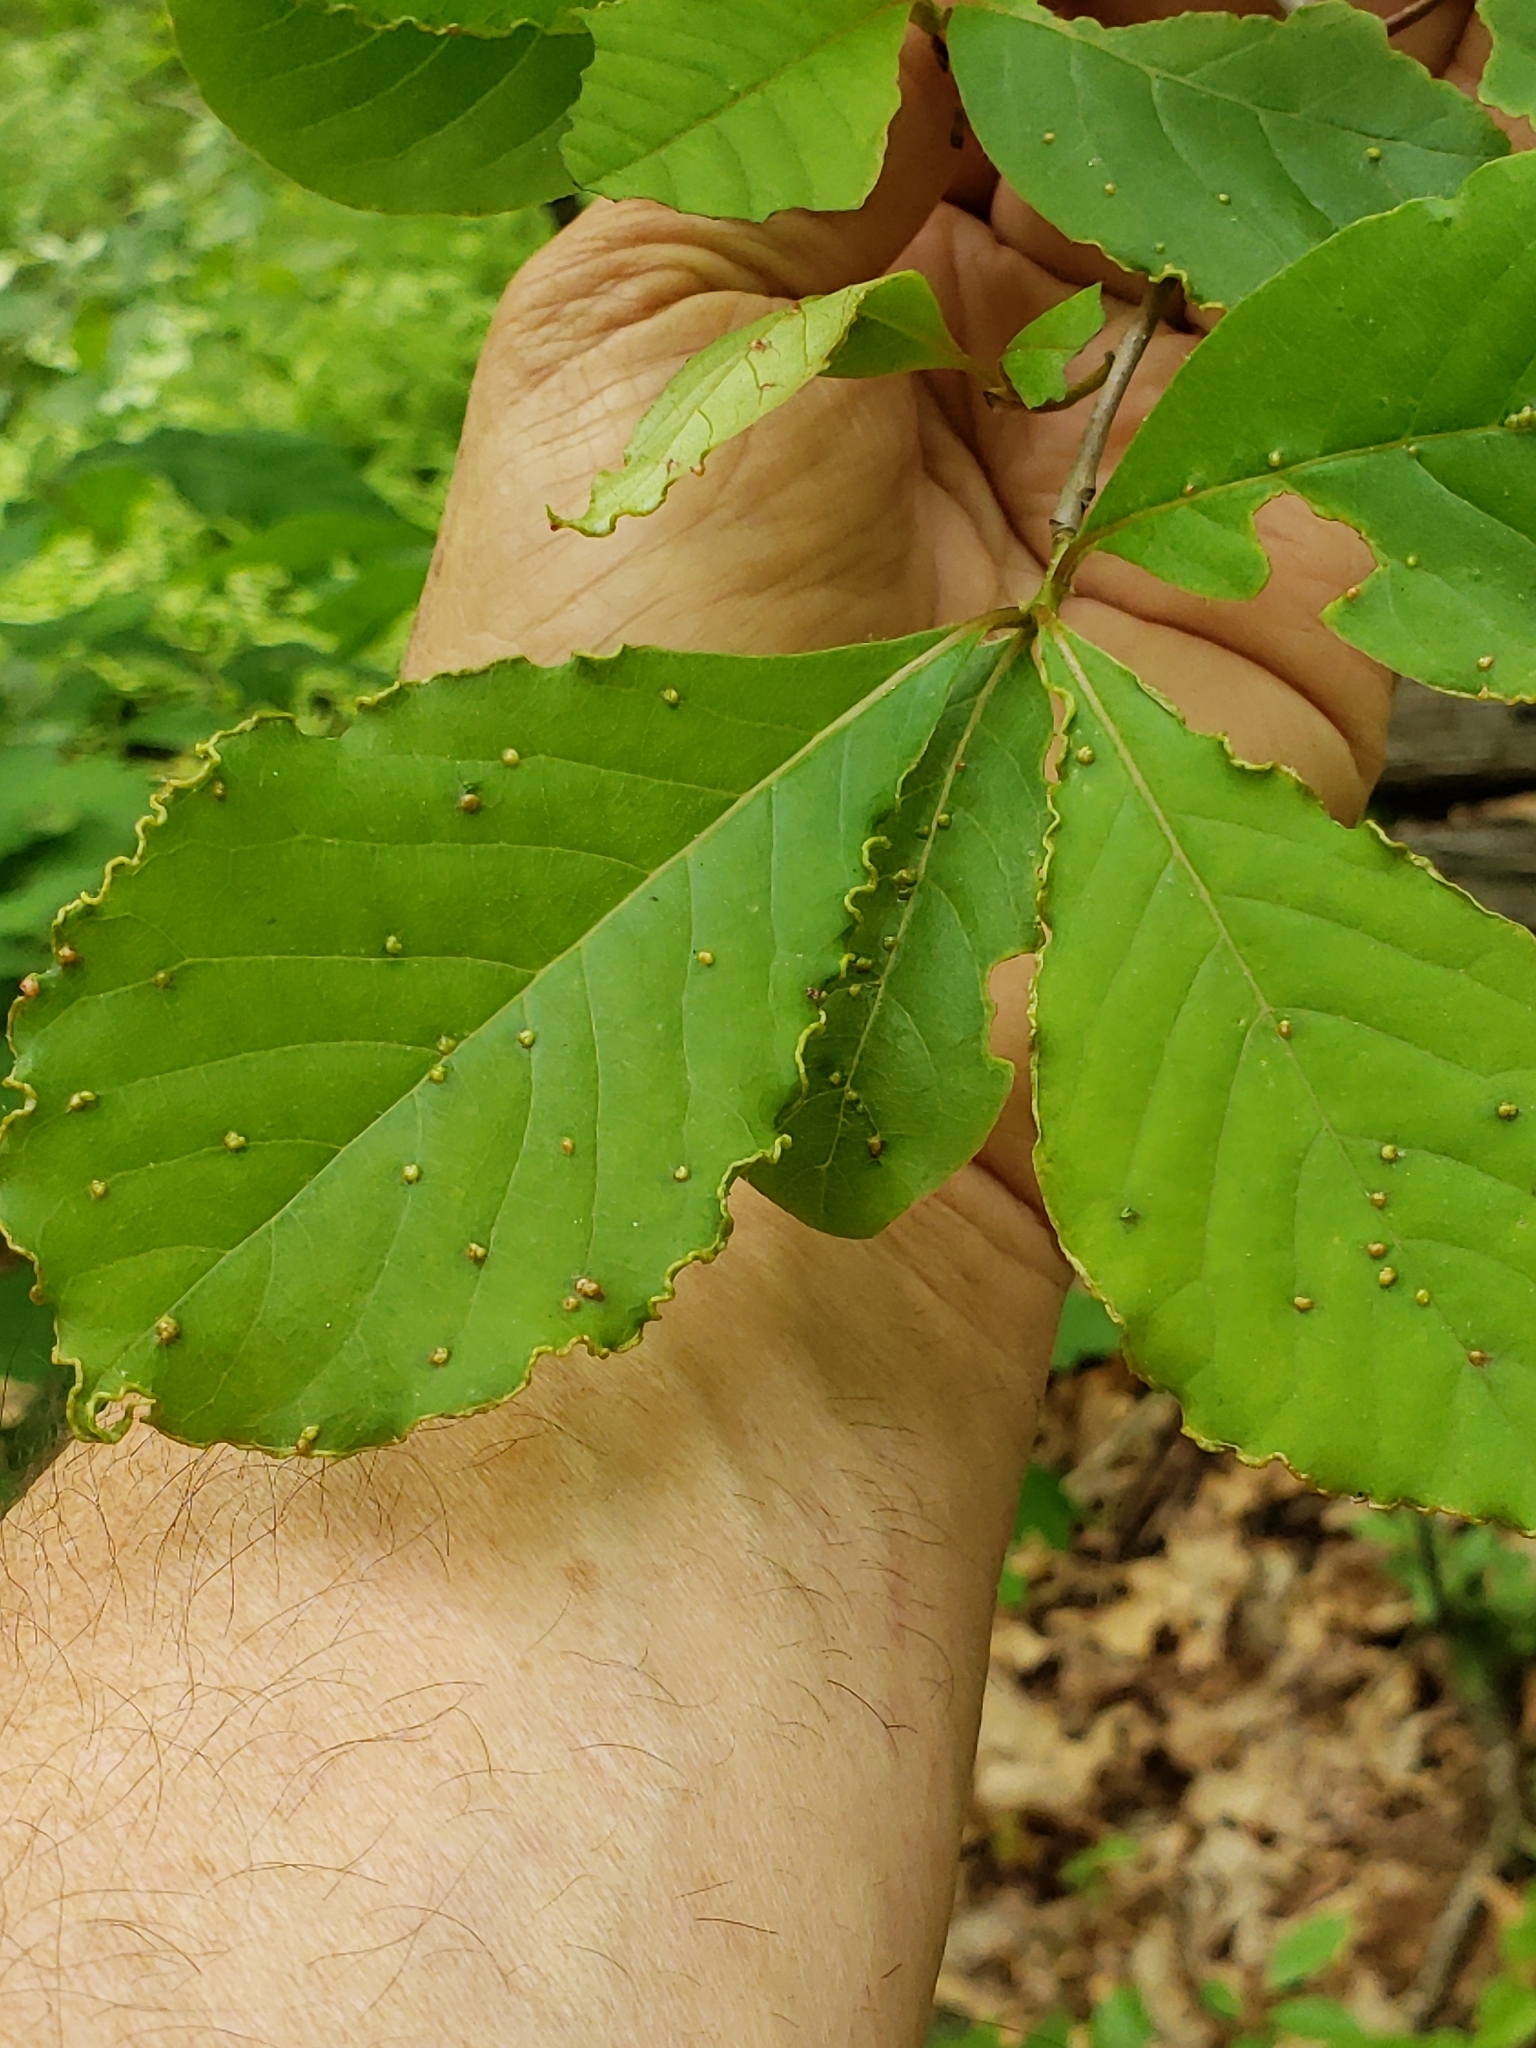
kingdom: Animalia
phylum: Arthropoda
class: Arachnida
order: Trombidiformes
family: Eriophyidae
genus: Aceria
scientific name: Aceria
